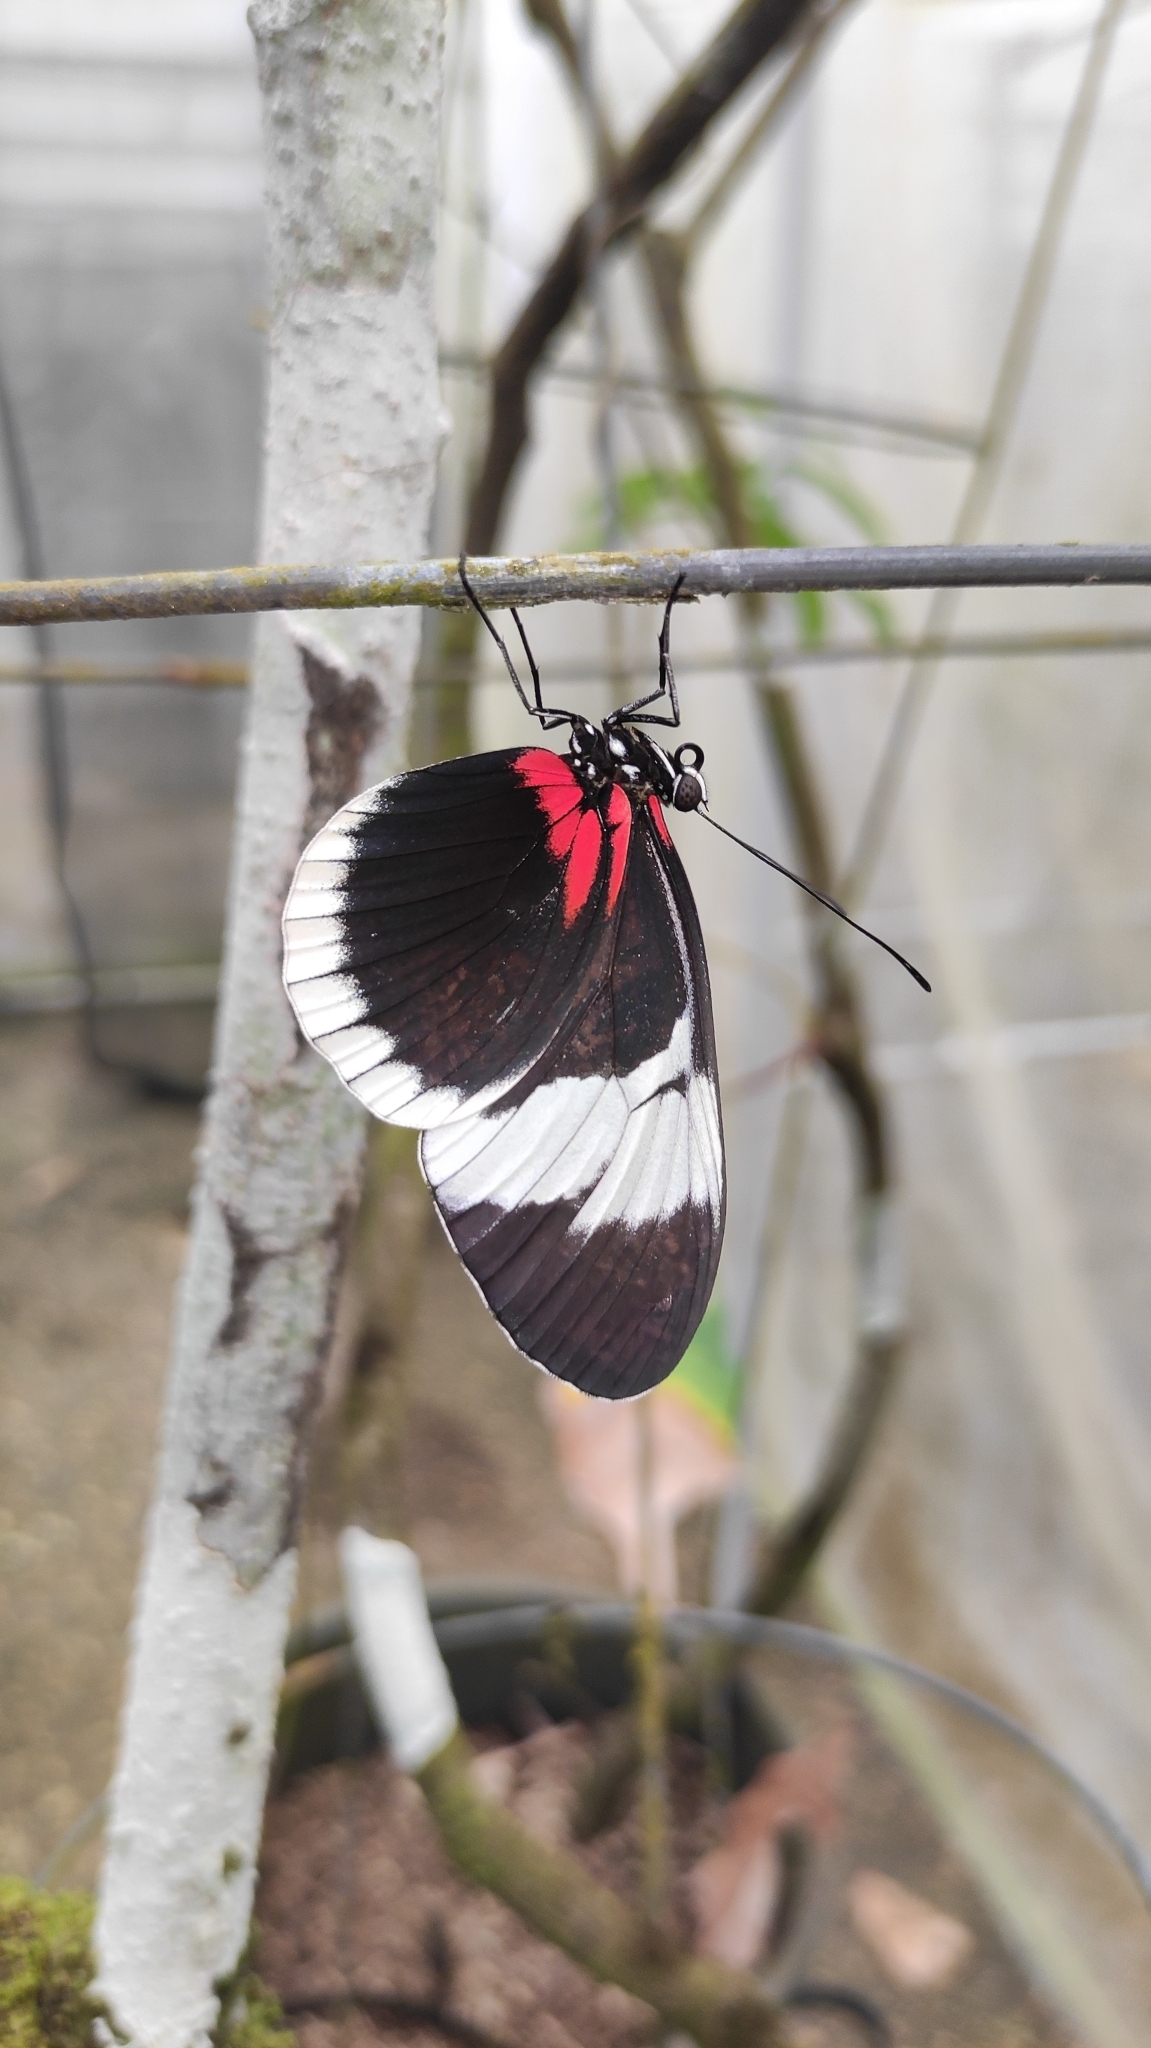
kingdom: Animalia
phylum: Arthropoda
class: Insecta
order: Lepidoptera
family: Nymphalidae
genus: Heliconius
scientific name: Heliconius sapho
